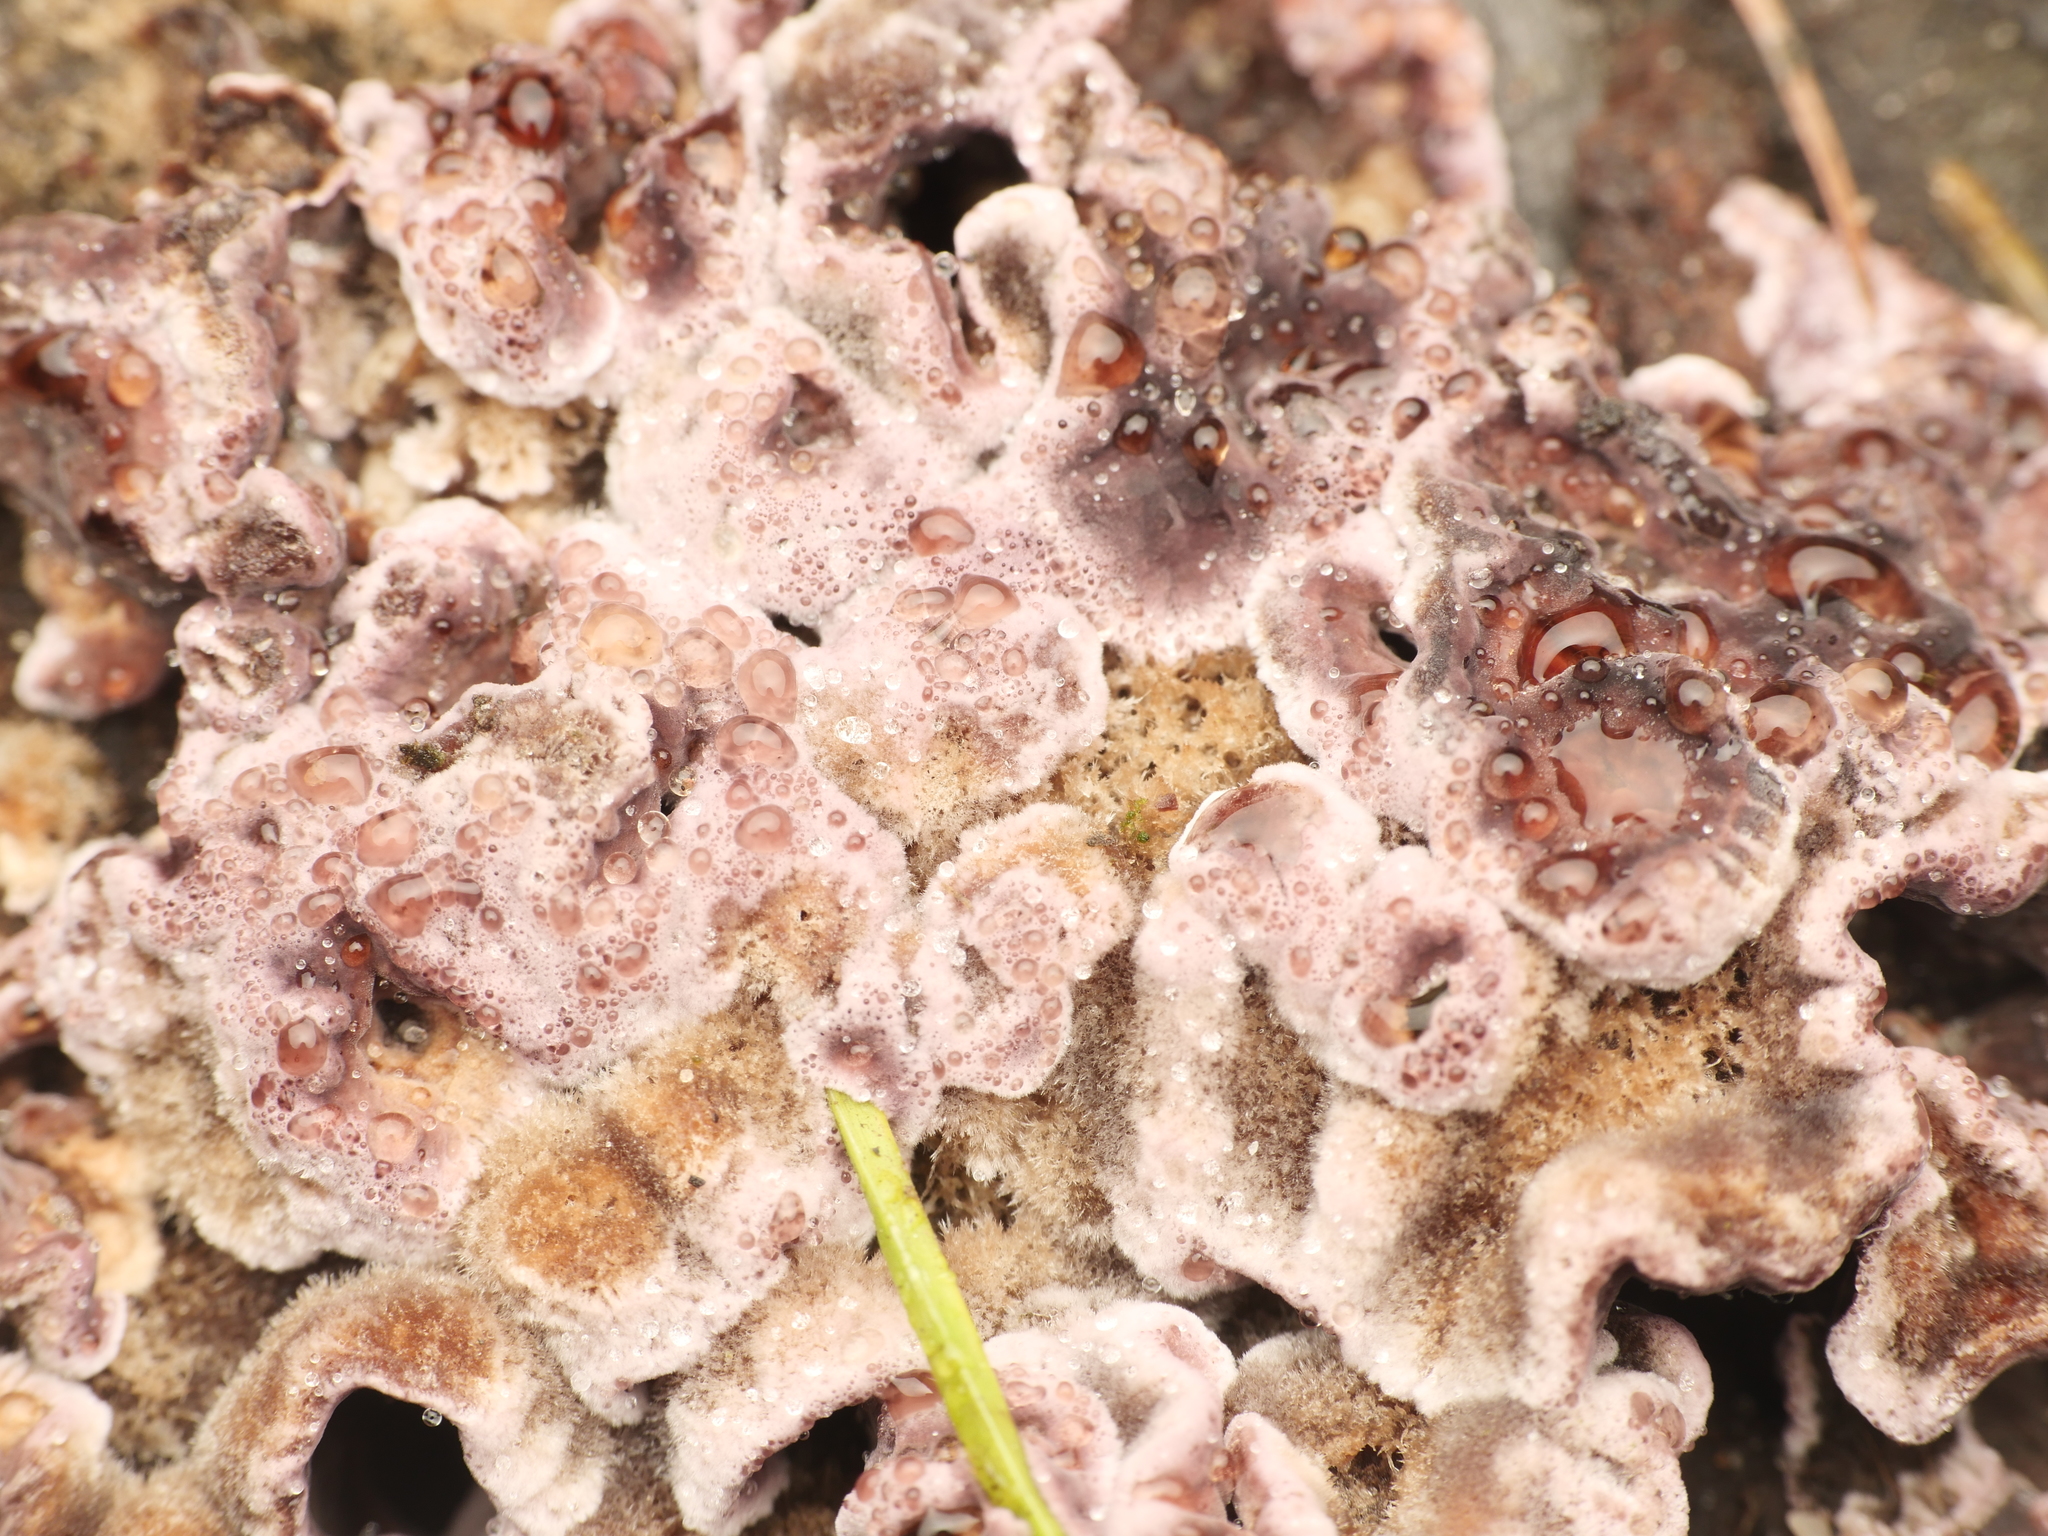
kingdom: Fungi
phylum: Basidiomycota
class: Agaricomycetes
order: Agaricales
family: Cyphellaceae
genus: Chondrostereum
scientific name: Chondrostereum purpureum
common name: Silver leaf disease
